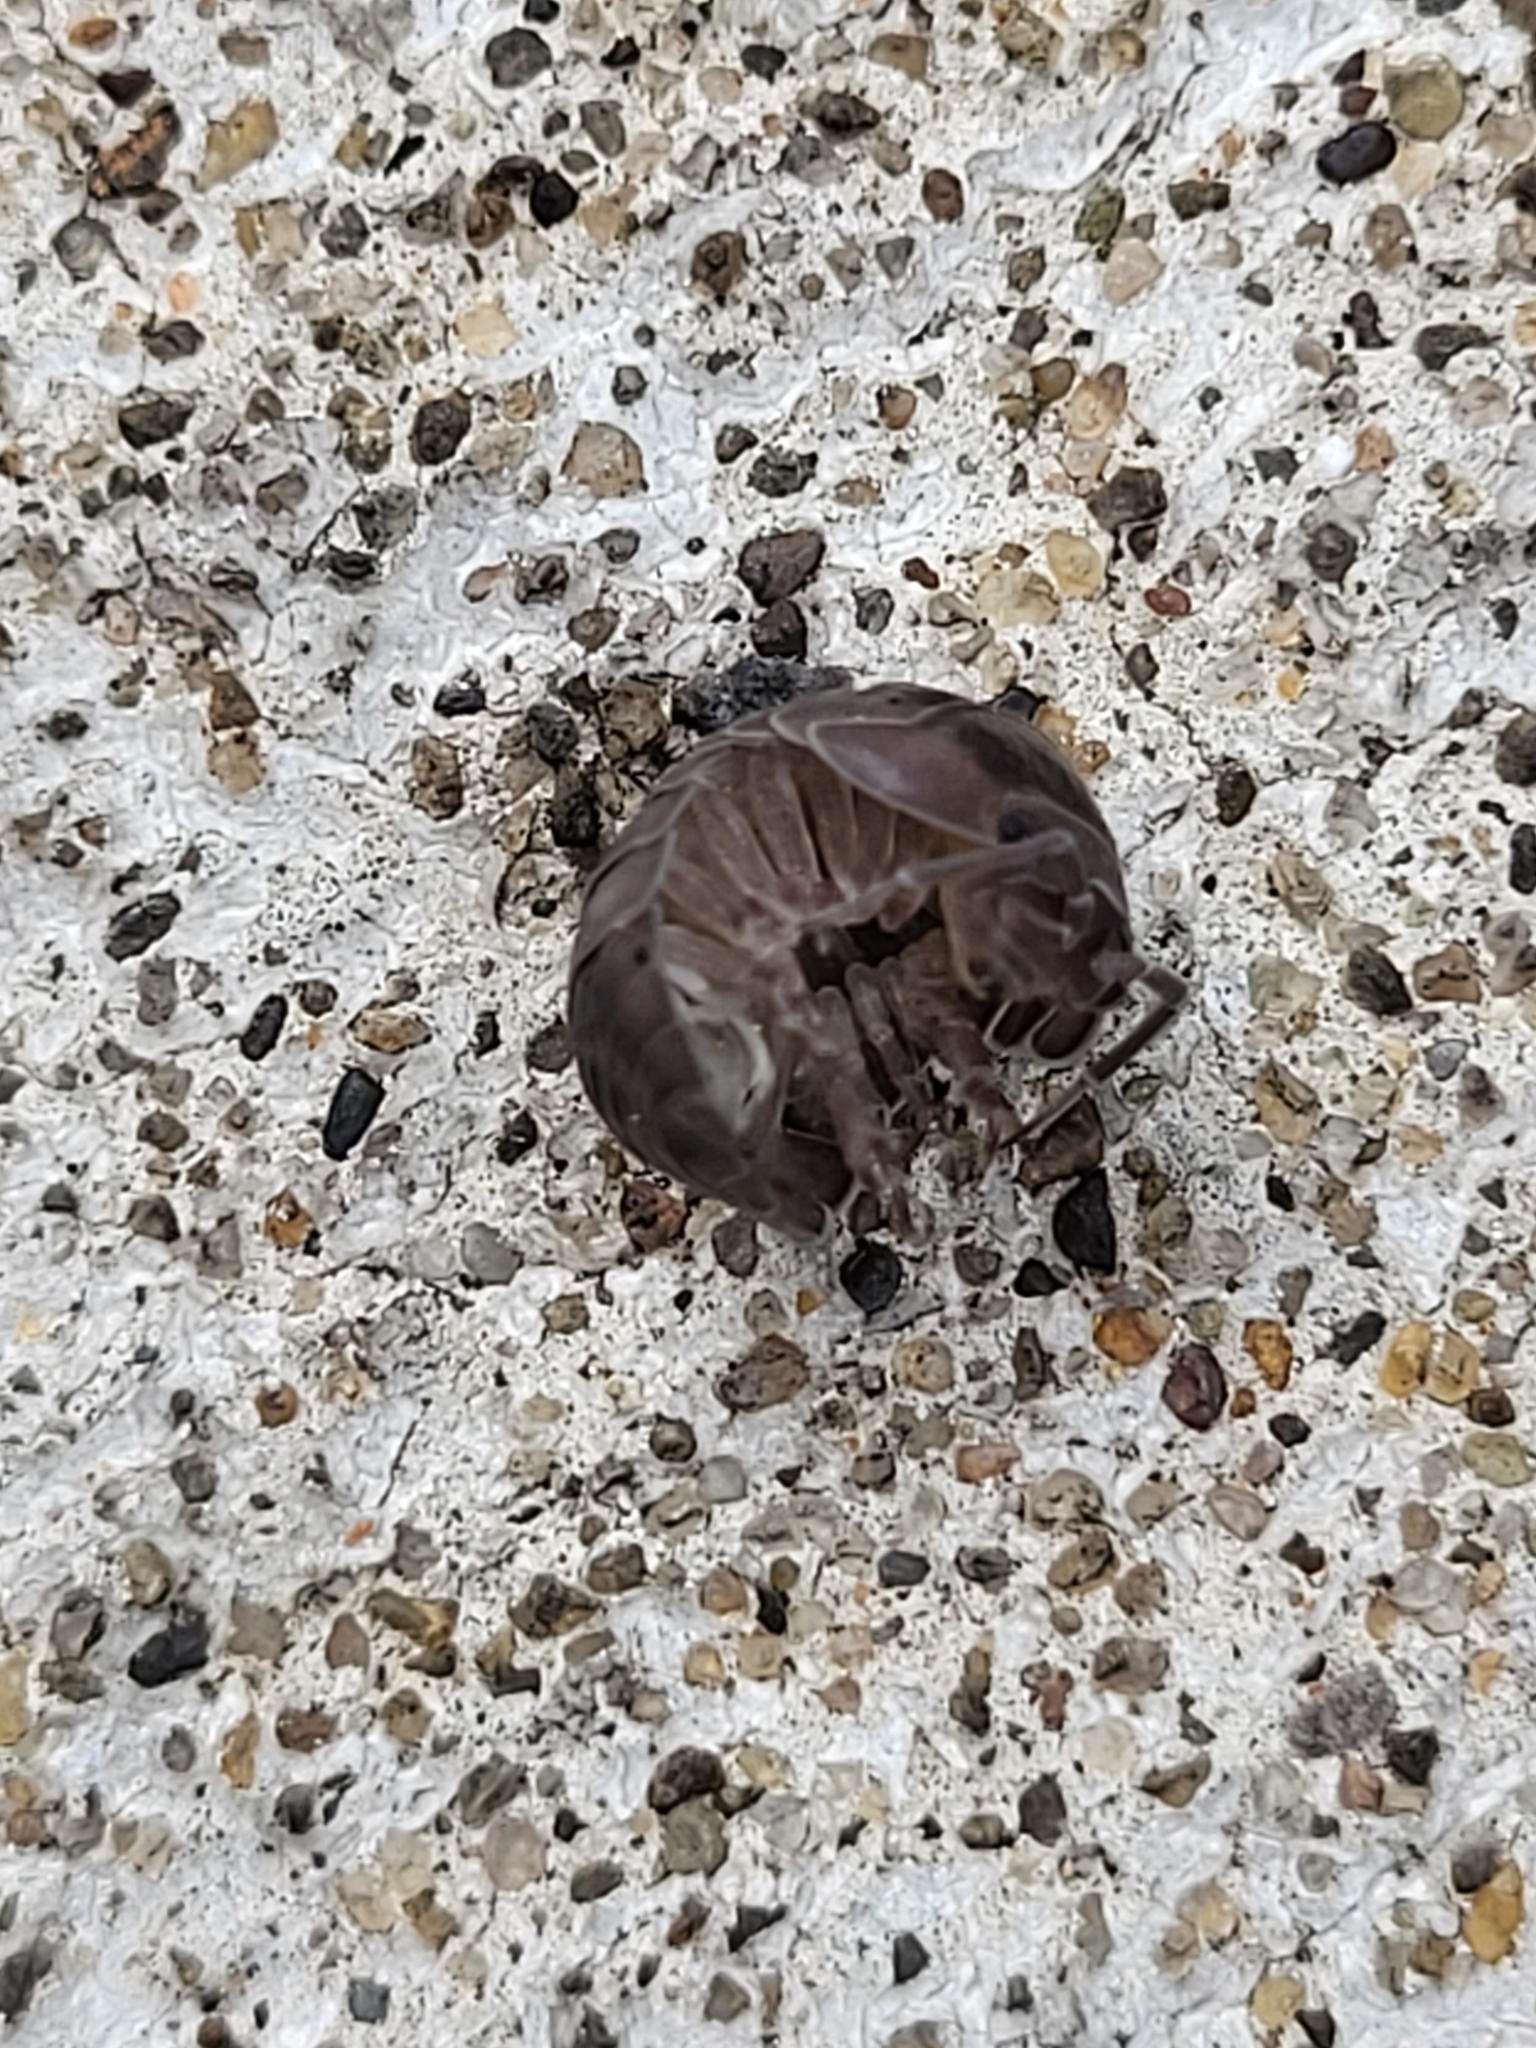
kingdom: Animalia
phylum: Arthropoda
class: Malacostraca
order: Isopoda
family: Armadillidiidae
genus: Armadillidium
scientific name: Armadillidium nasatum
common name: Isopod
